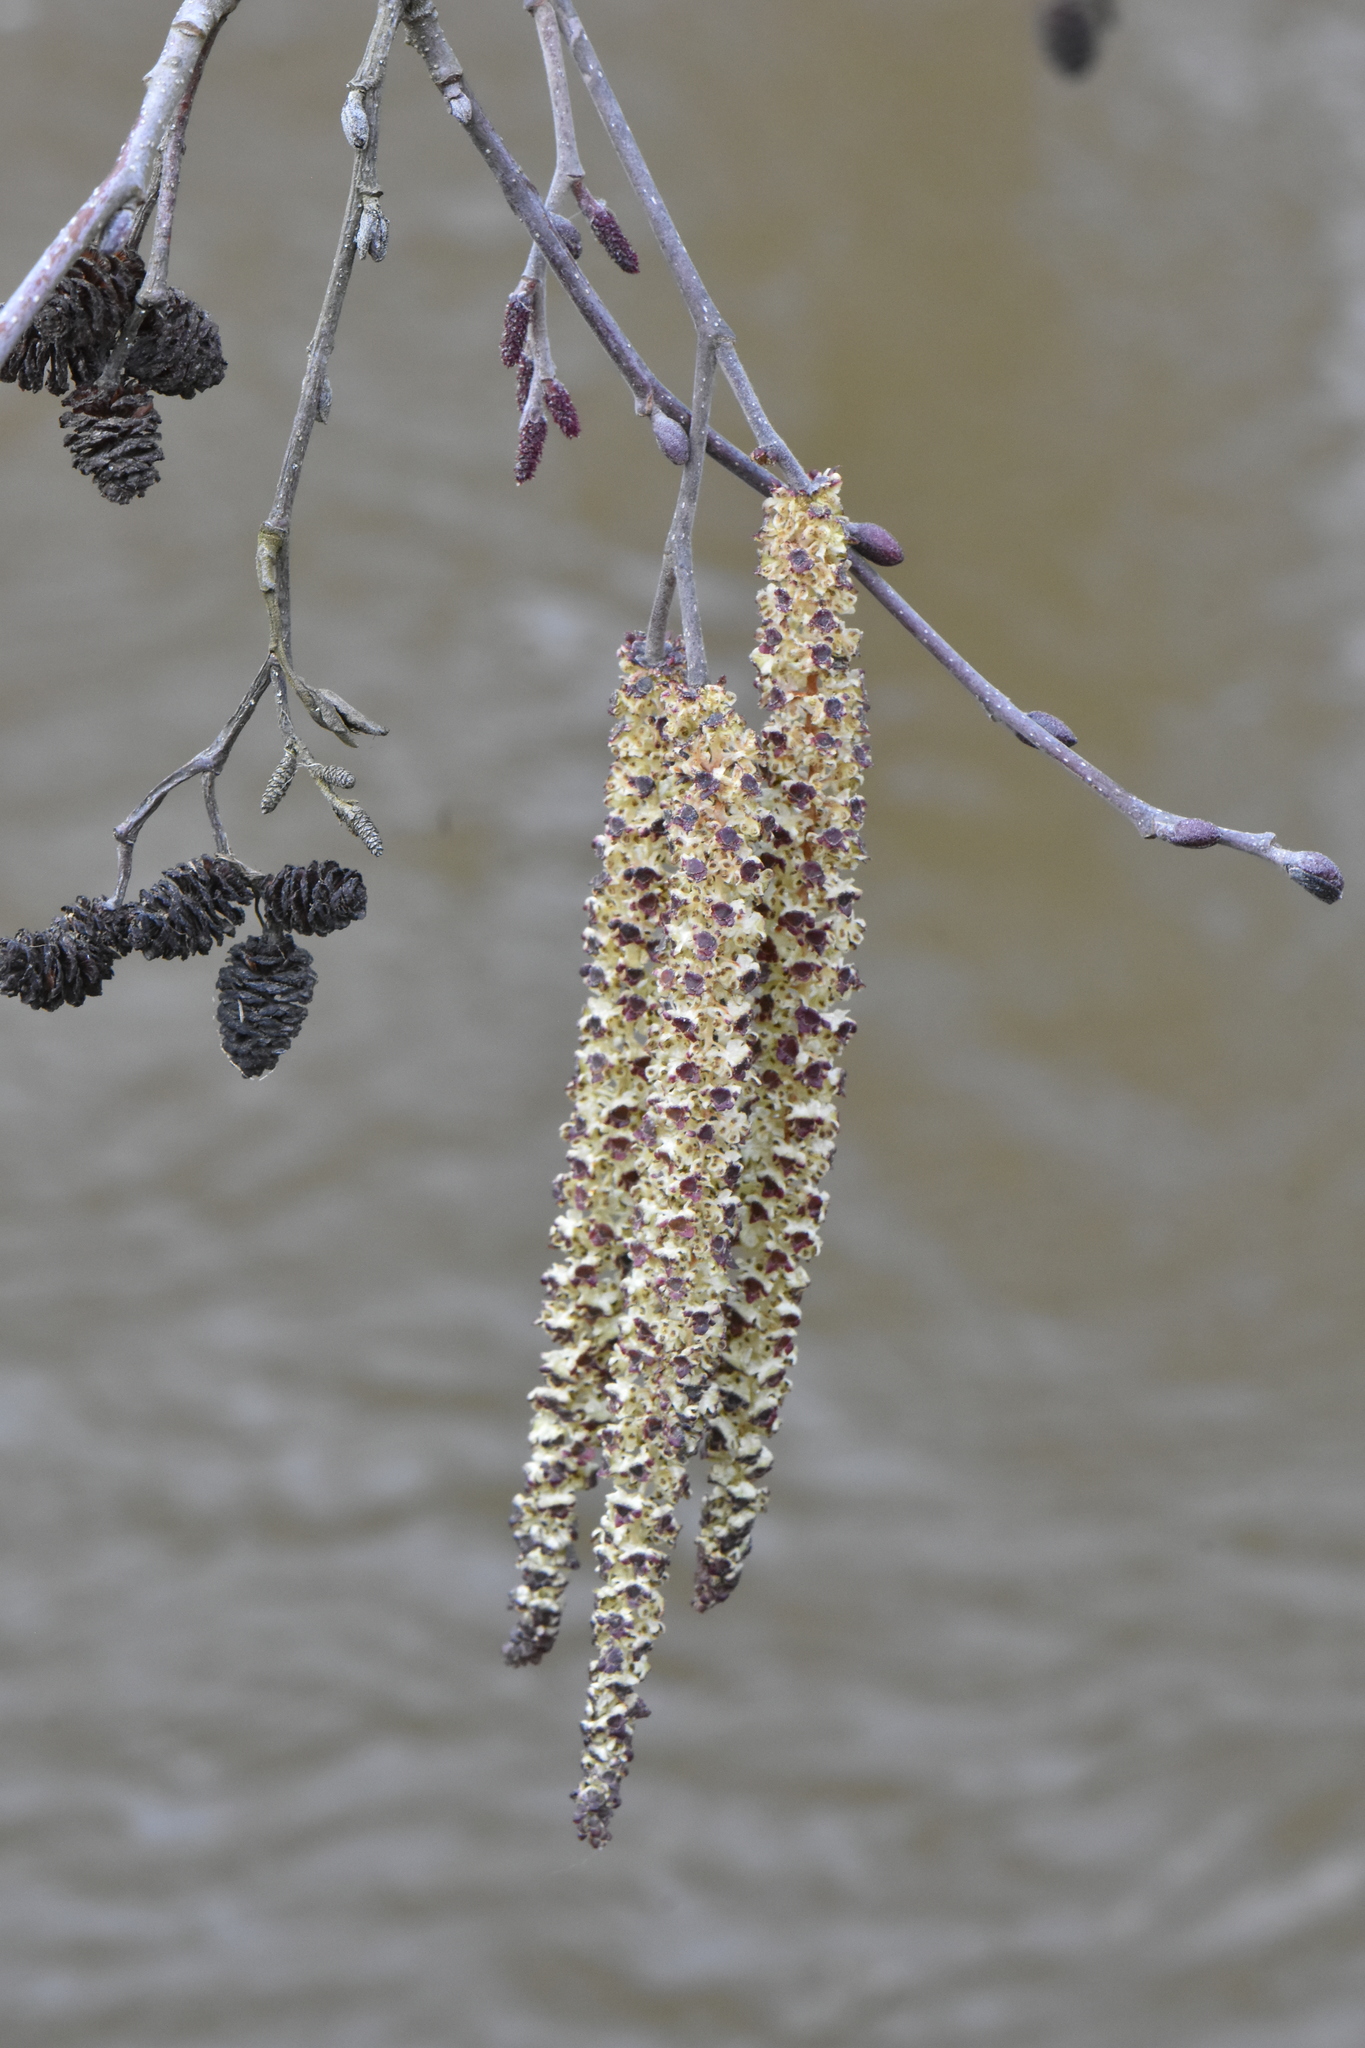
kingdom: Plantae
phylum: Tracheophyta
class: Magnoliopsida
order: Fagales
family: Betulaceae
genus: Alnus
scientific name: Alnus glutinosa
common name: Black alder
